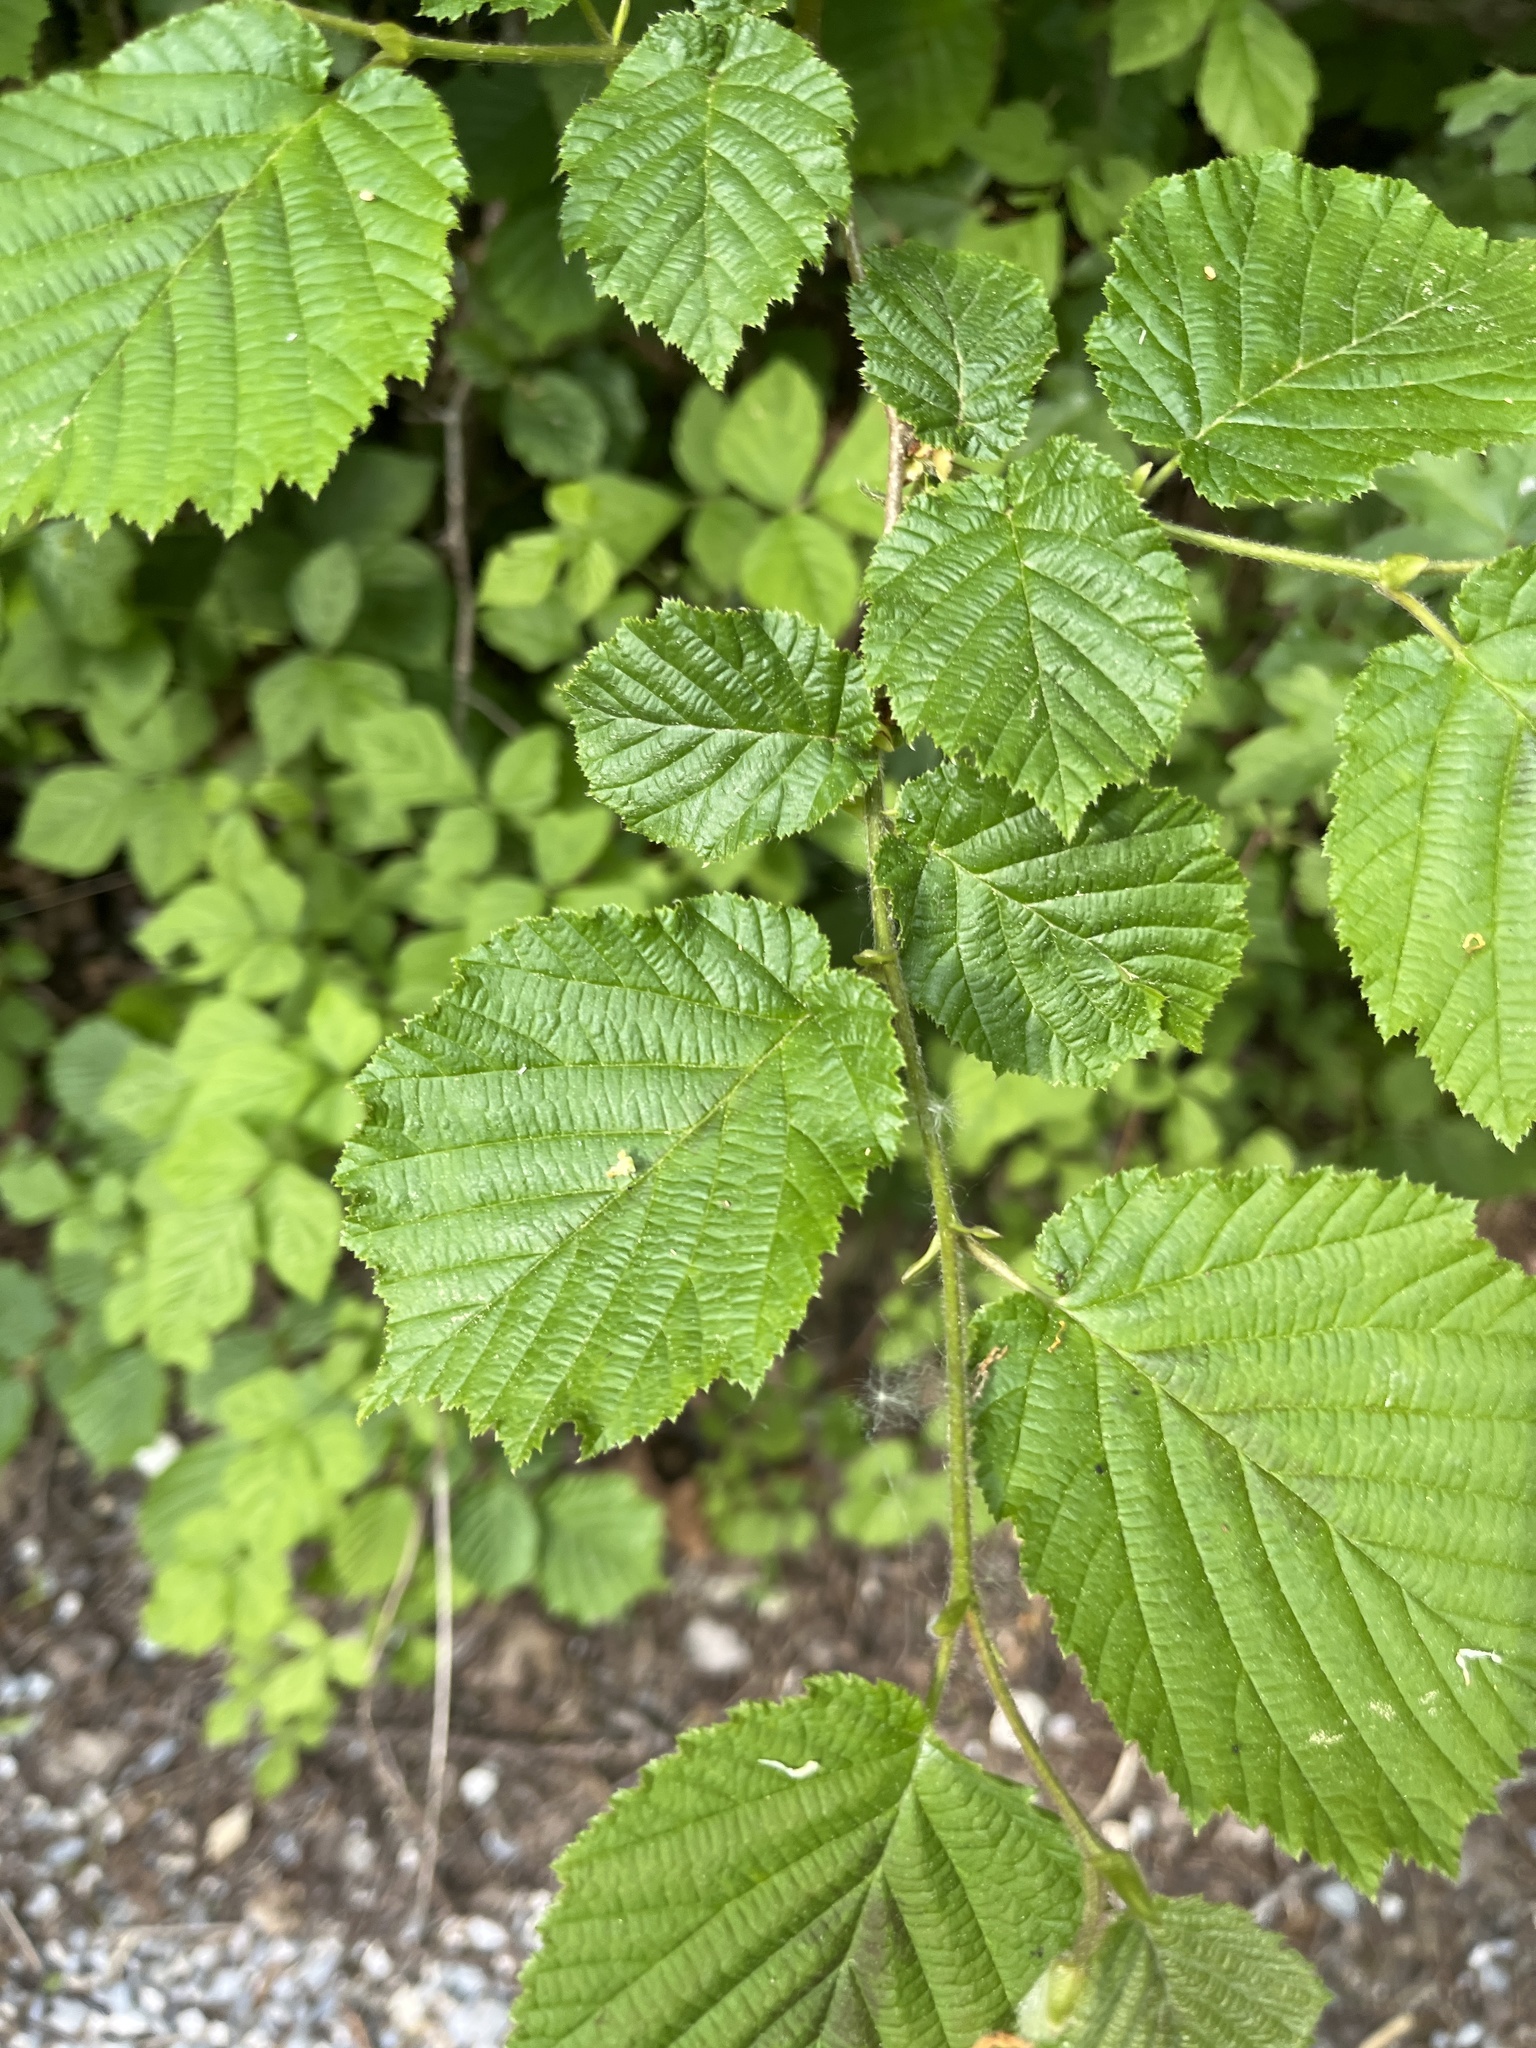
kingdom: Plantae
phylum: Tracheophyta
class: Magnoliopsida
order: Fagales
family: Betulaceae
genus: Corylus
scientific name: Corylus avellana
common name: European hazel
